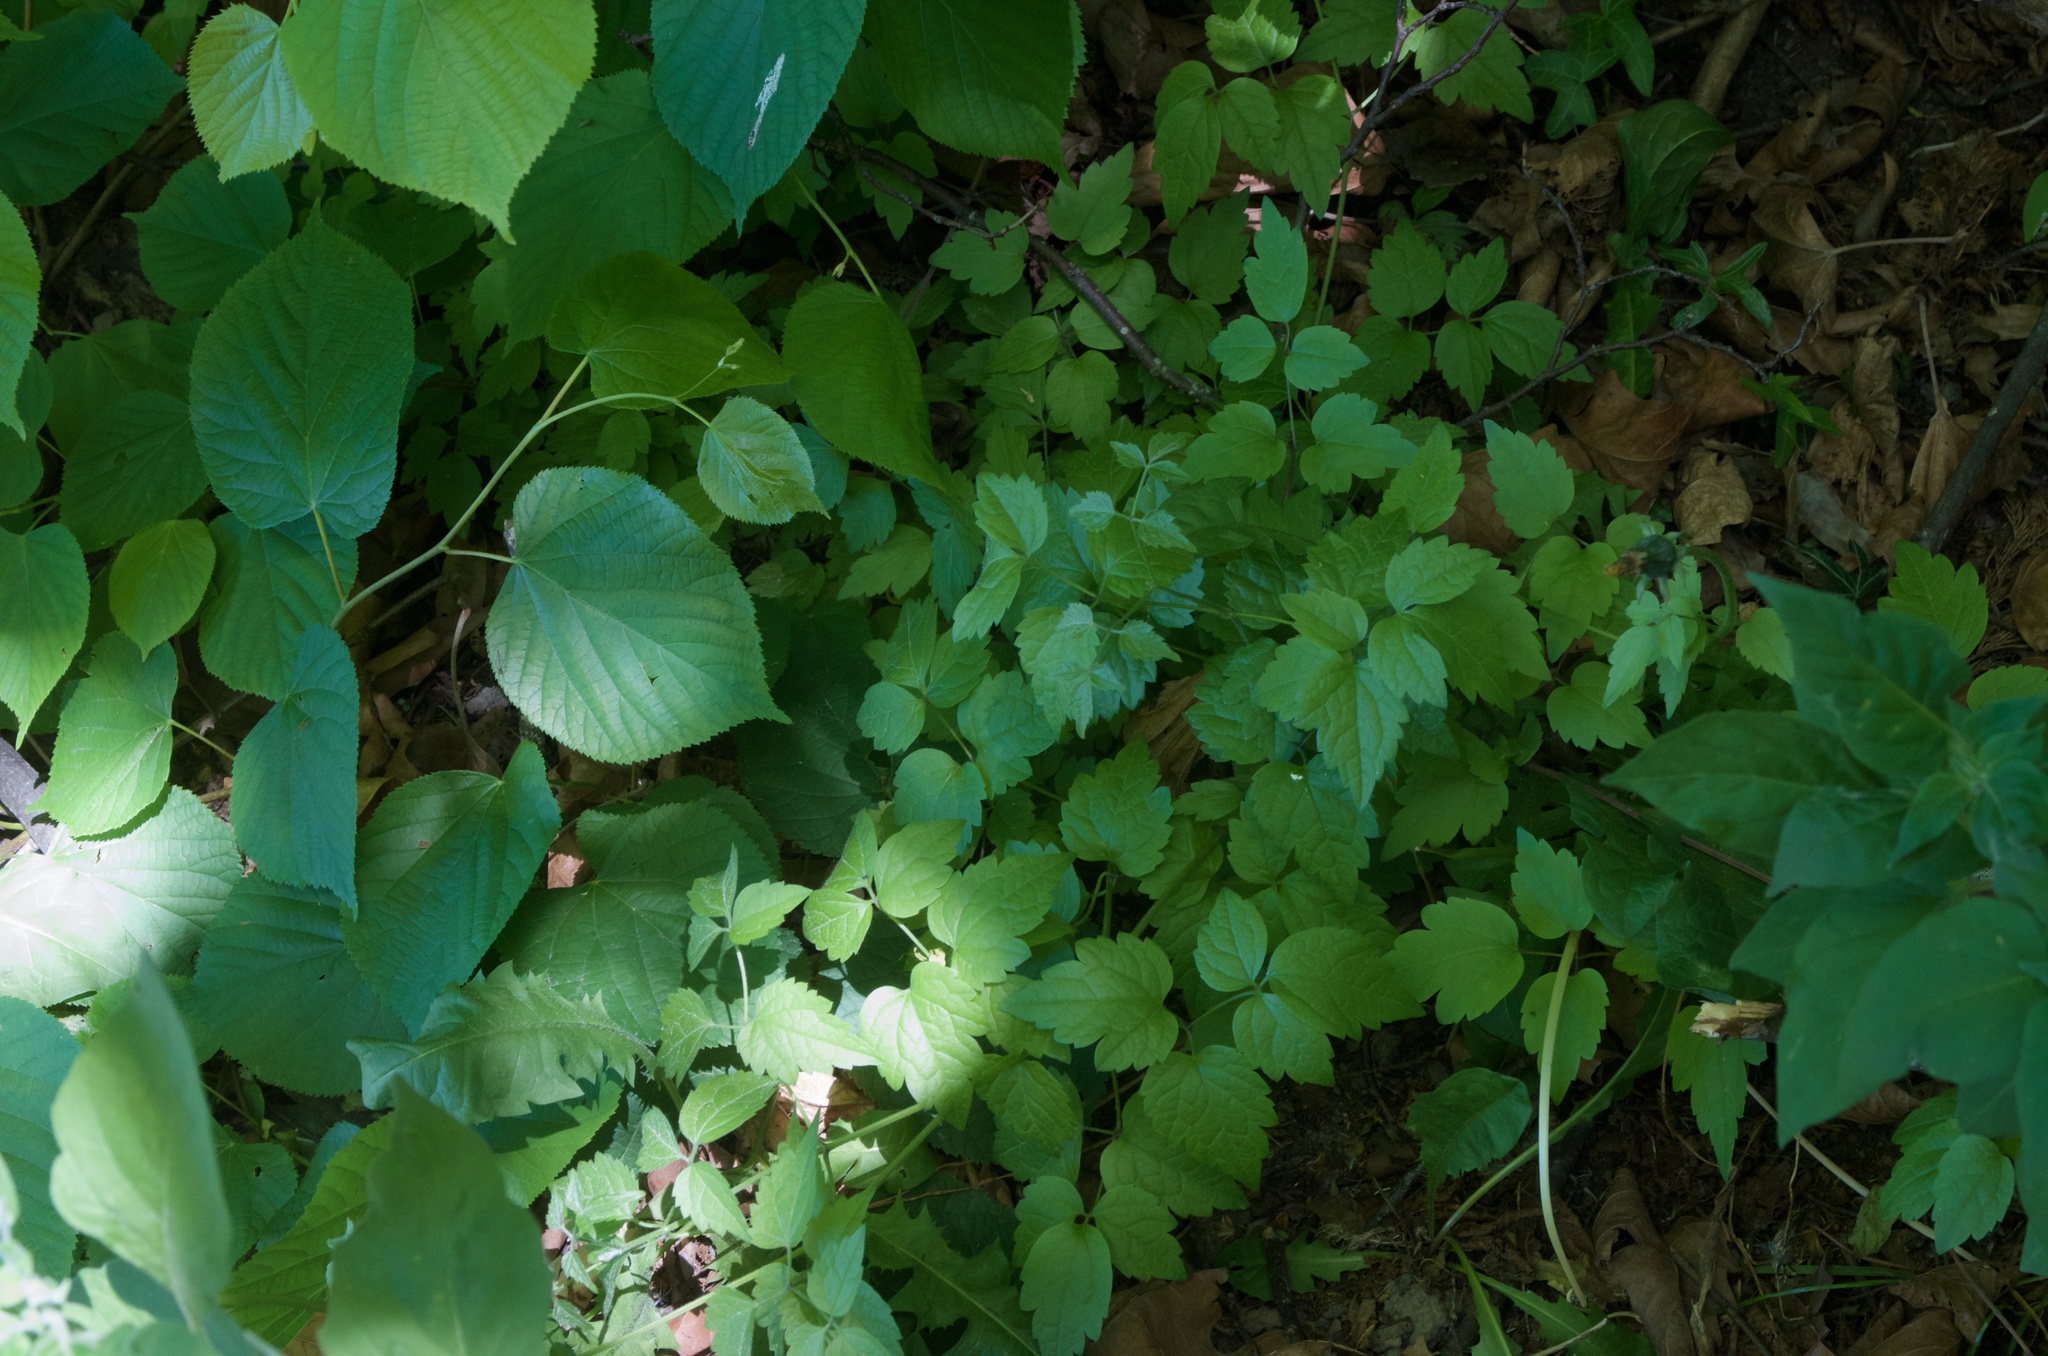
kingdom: Plantae
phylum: Tracheophyta
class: Magnoliopsida
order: Ranunculales
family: Ranunculaceae
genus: Clematis
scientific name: Clematis vitalba
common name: Evergreen clematis
